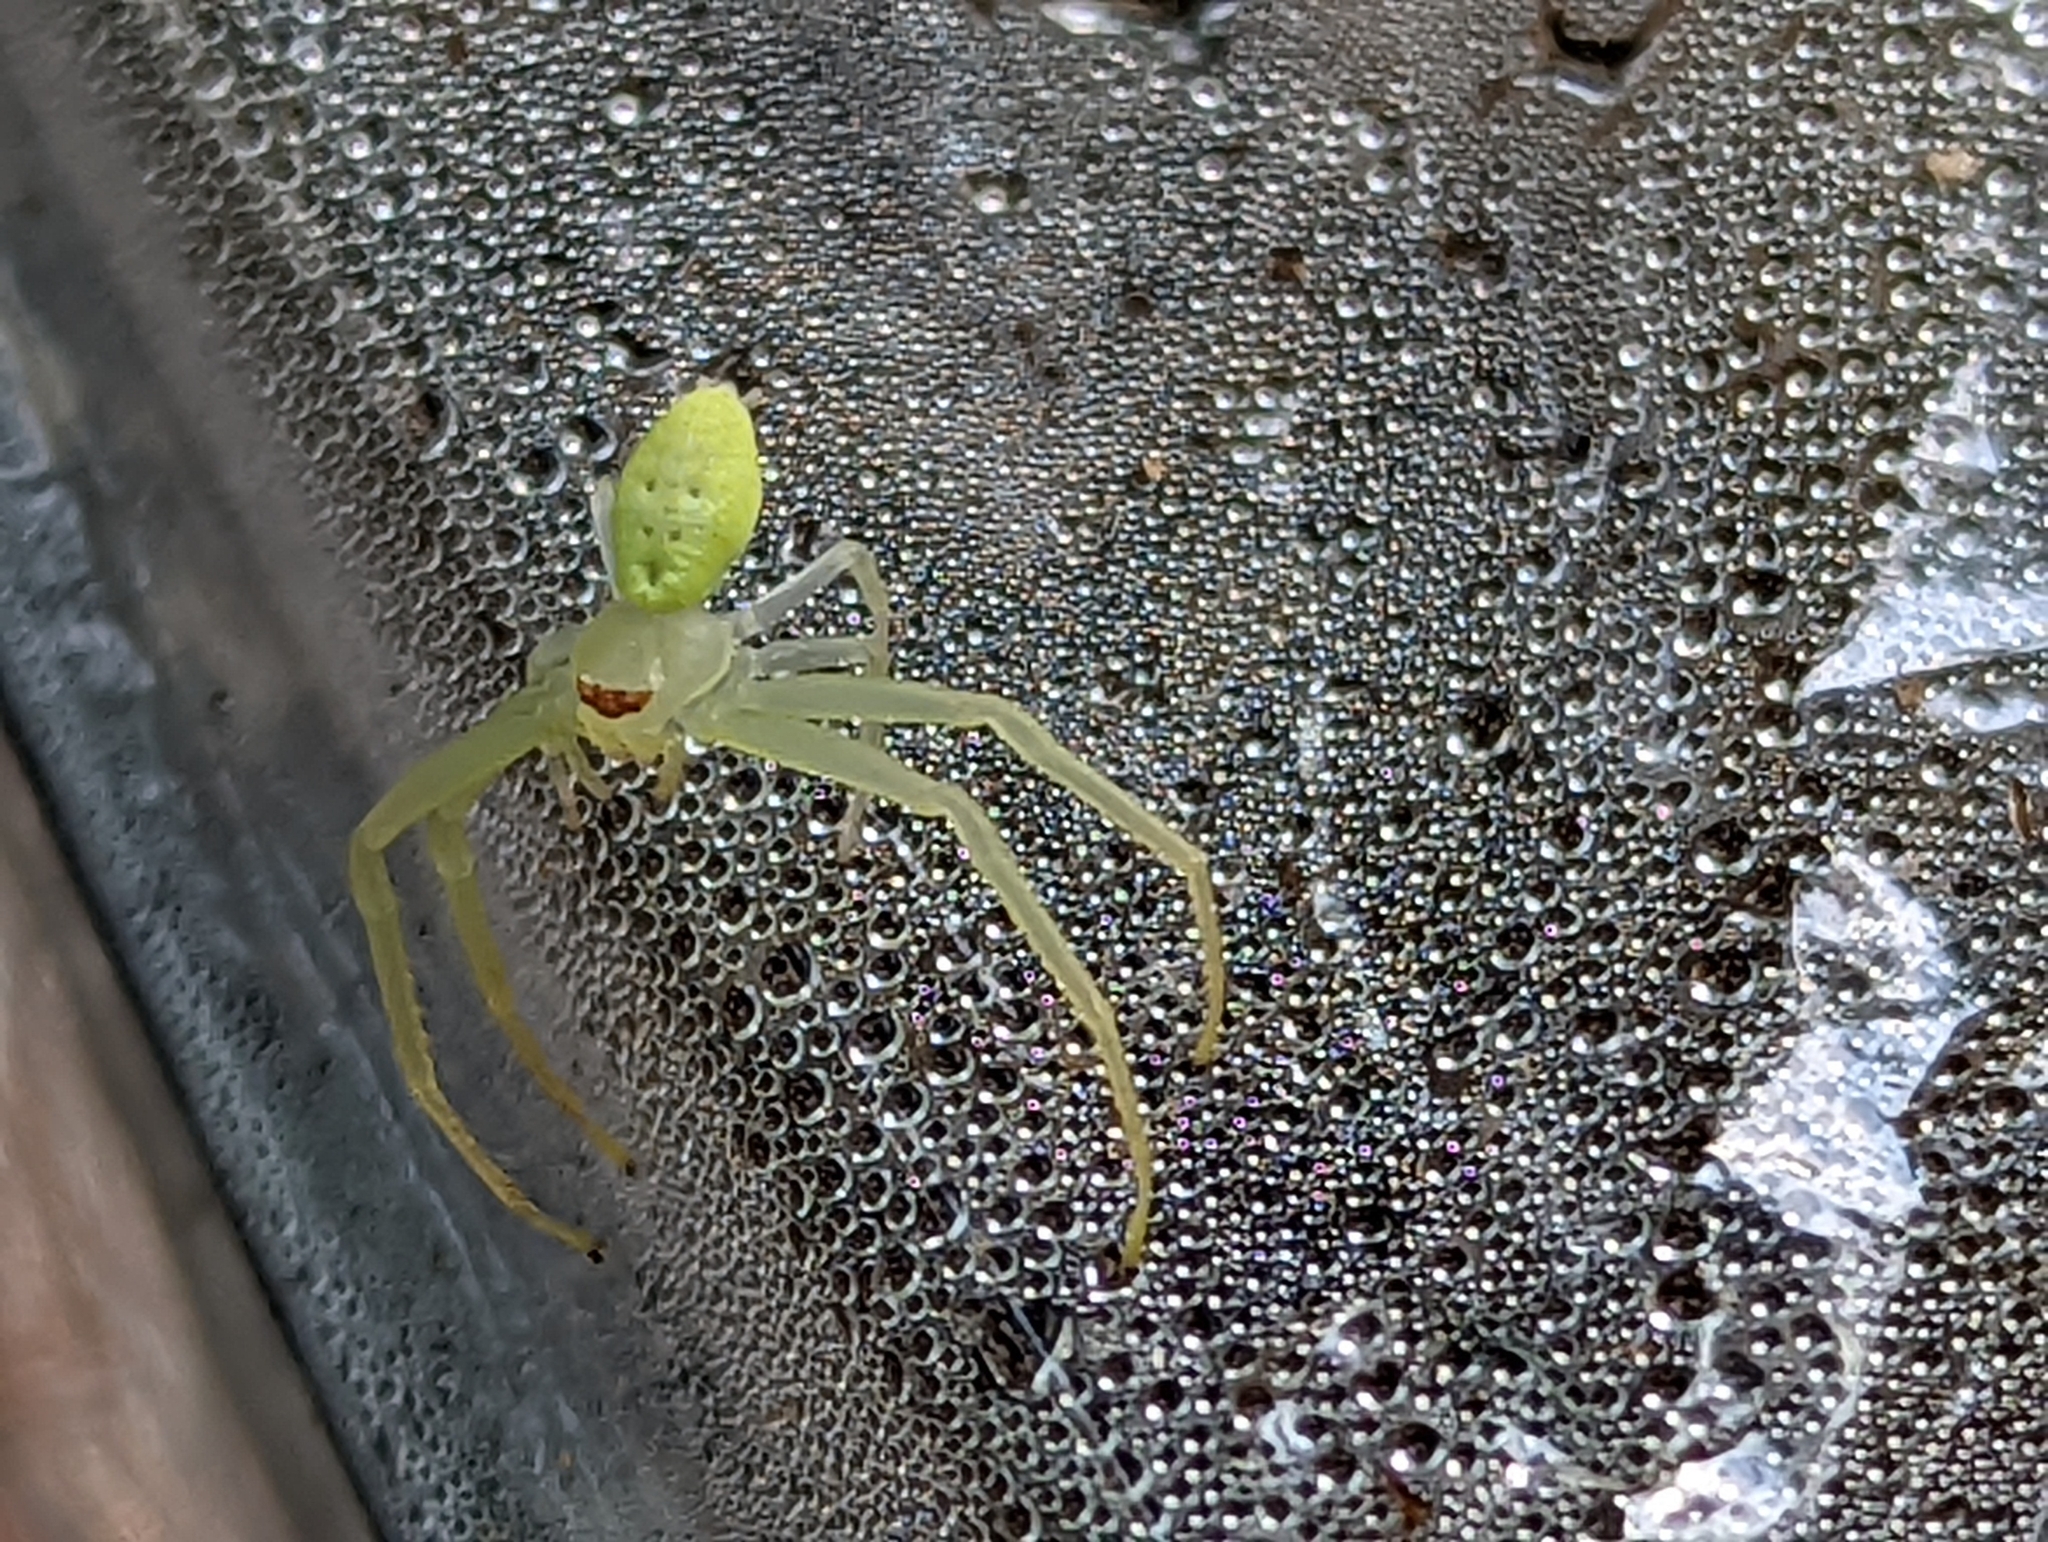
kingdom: Animalia
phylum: Arthropoda
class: Arachnida
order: Araneae
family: Thomisidae
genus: Misumessus
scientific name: Misumessus oblongus
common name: American green crab spider
